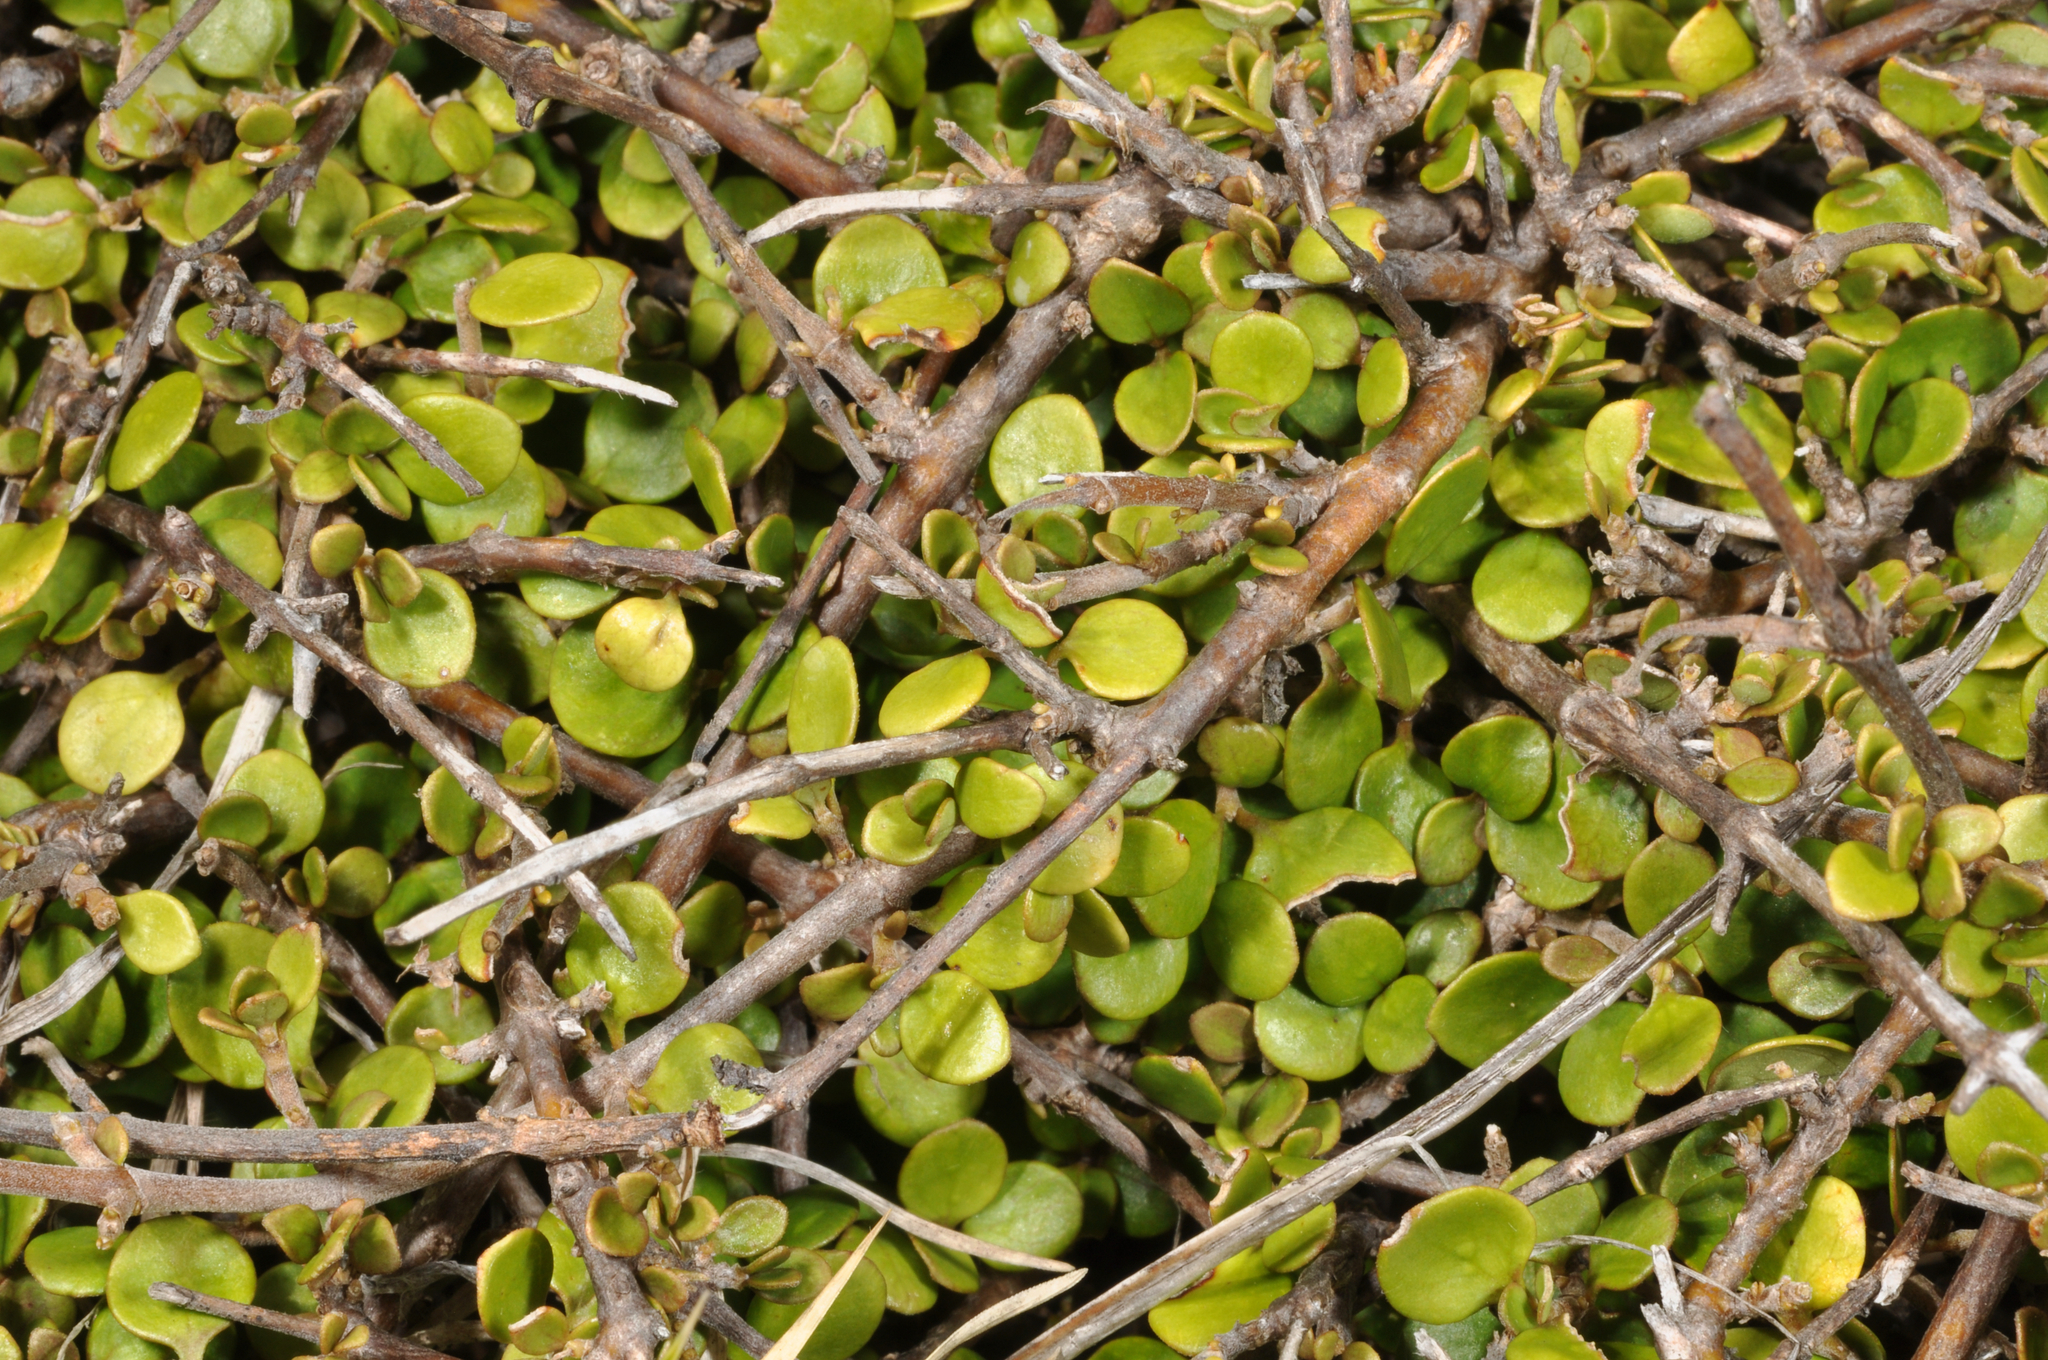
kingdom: Plantae
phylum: Tracheophyta
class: Magnoliopsida
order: Gentianales
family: Rubiaceae
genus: Coprosma
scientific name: Coprosma neglecta
